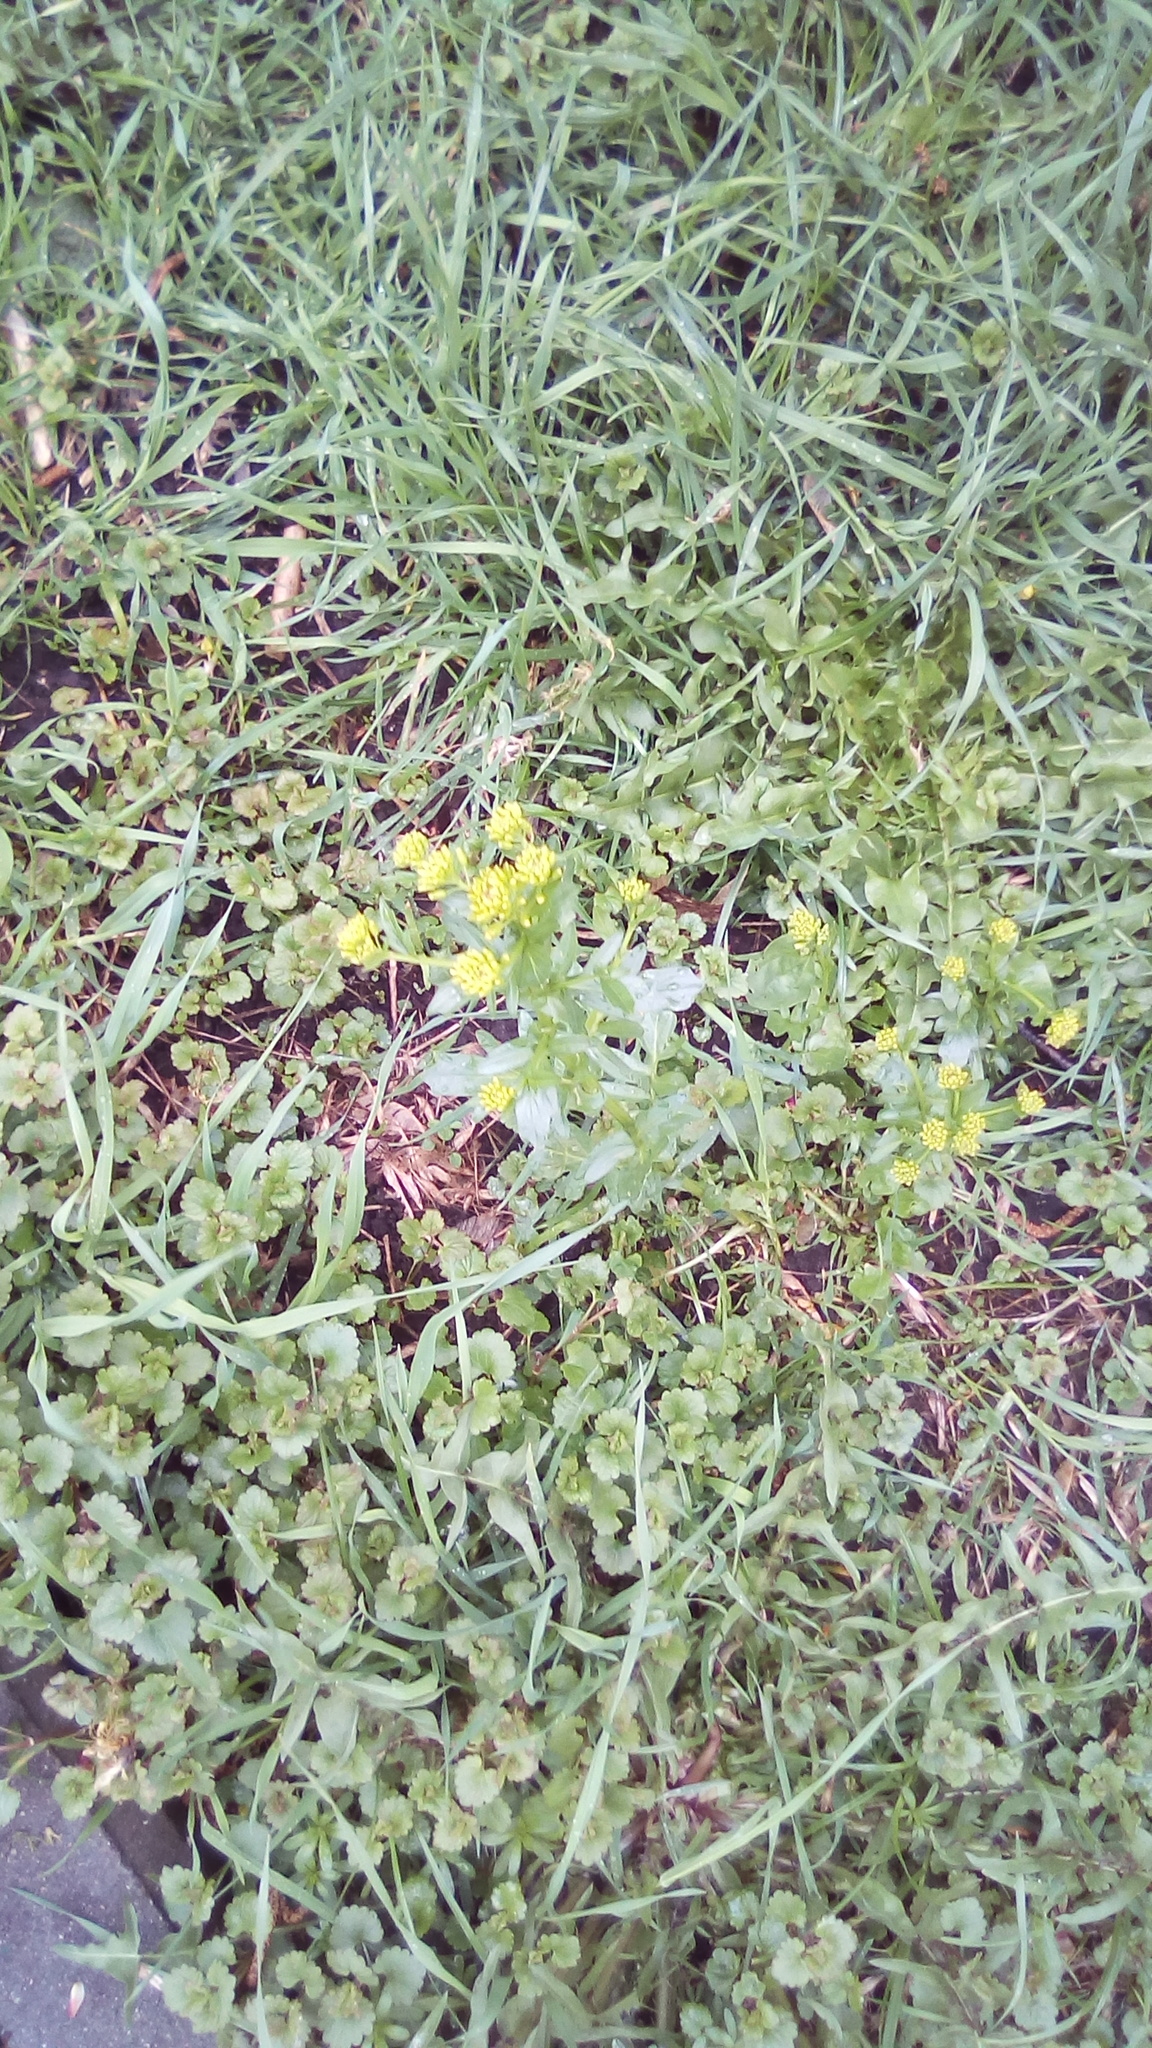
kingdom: Plantae
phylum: Tracheophyta
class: Magnoliopsida
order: Brassicales
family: Brassicaceae
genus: Barbarea
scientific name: Barbarea vulgaris
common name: Cressy-greens
